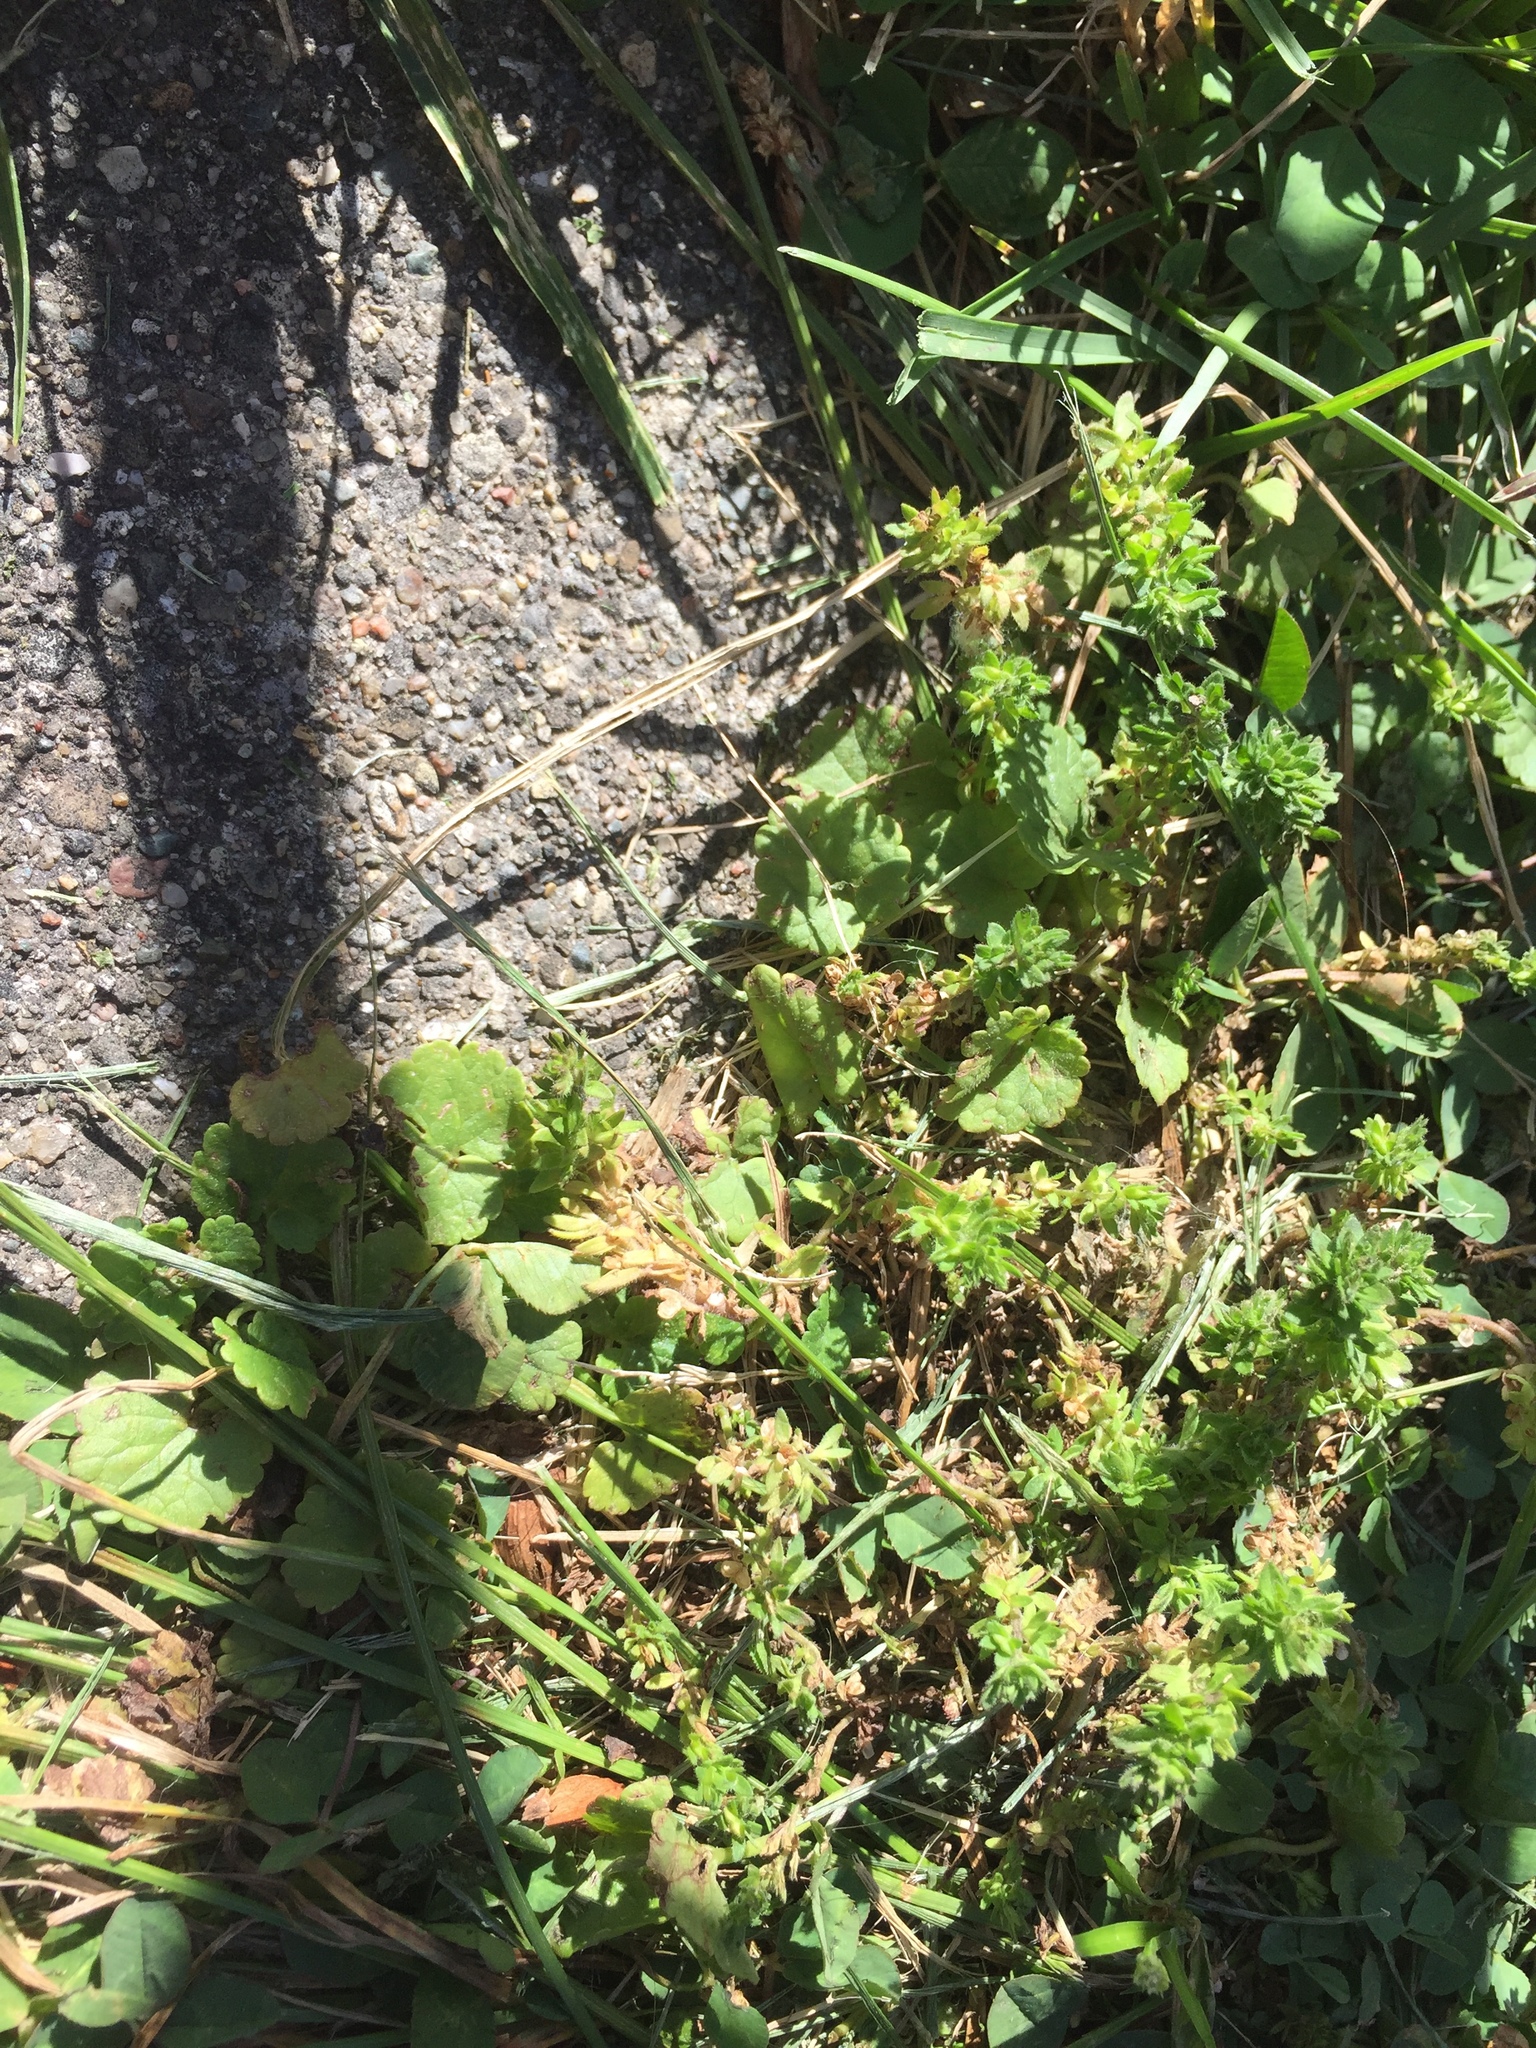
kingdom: Plantae
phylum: Tracheophyta
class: Magnoliopsida
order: Lamiales
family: Plantaginaceae
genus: Veronica
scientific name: Veronica arvensis
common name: Corn speedwell
